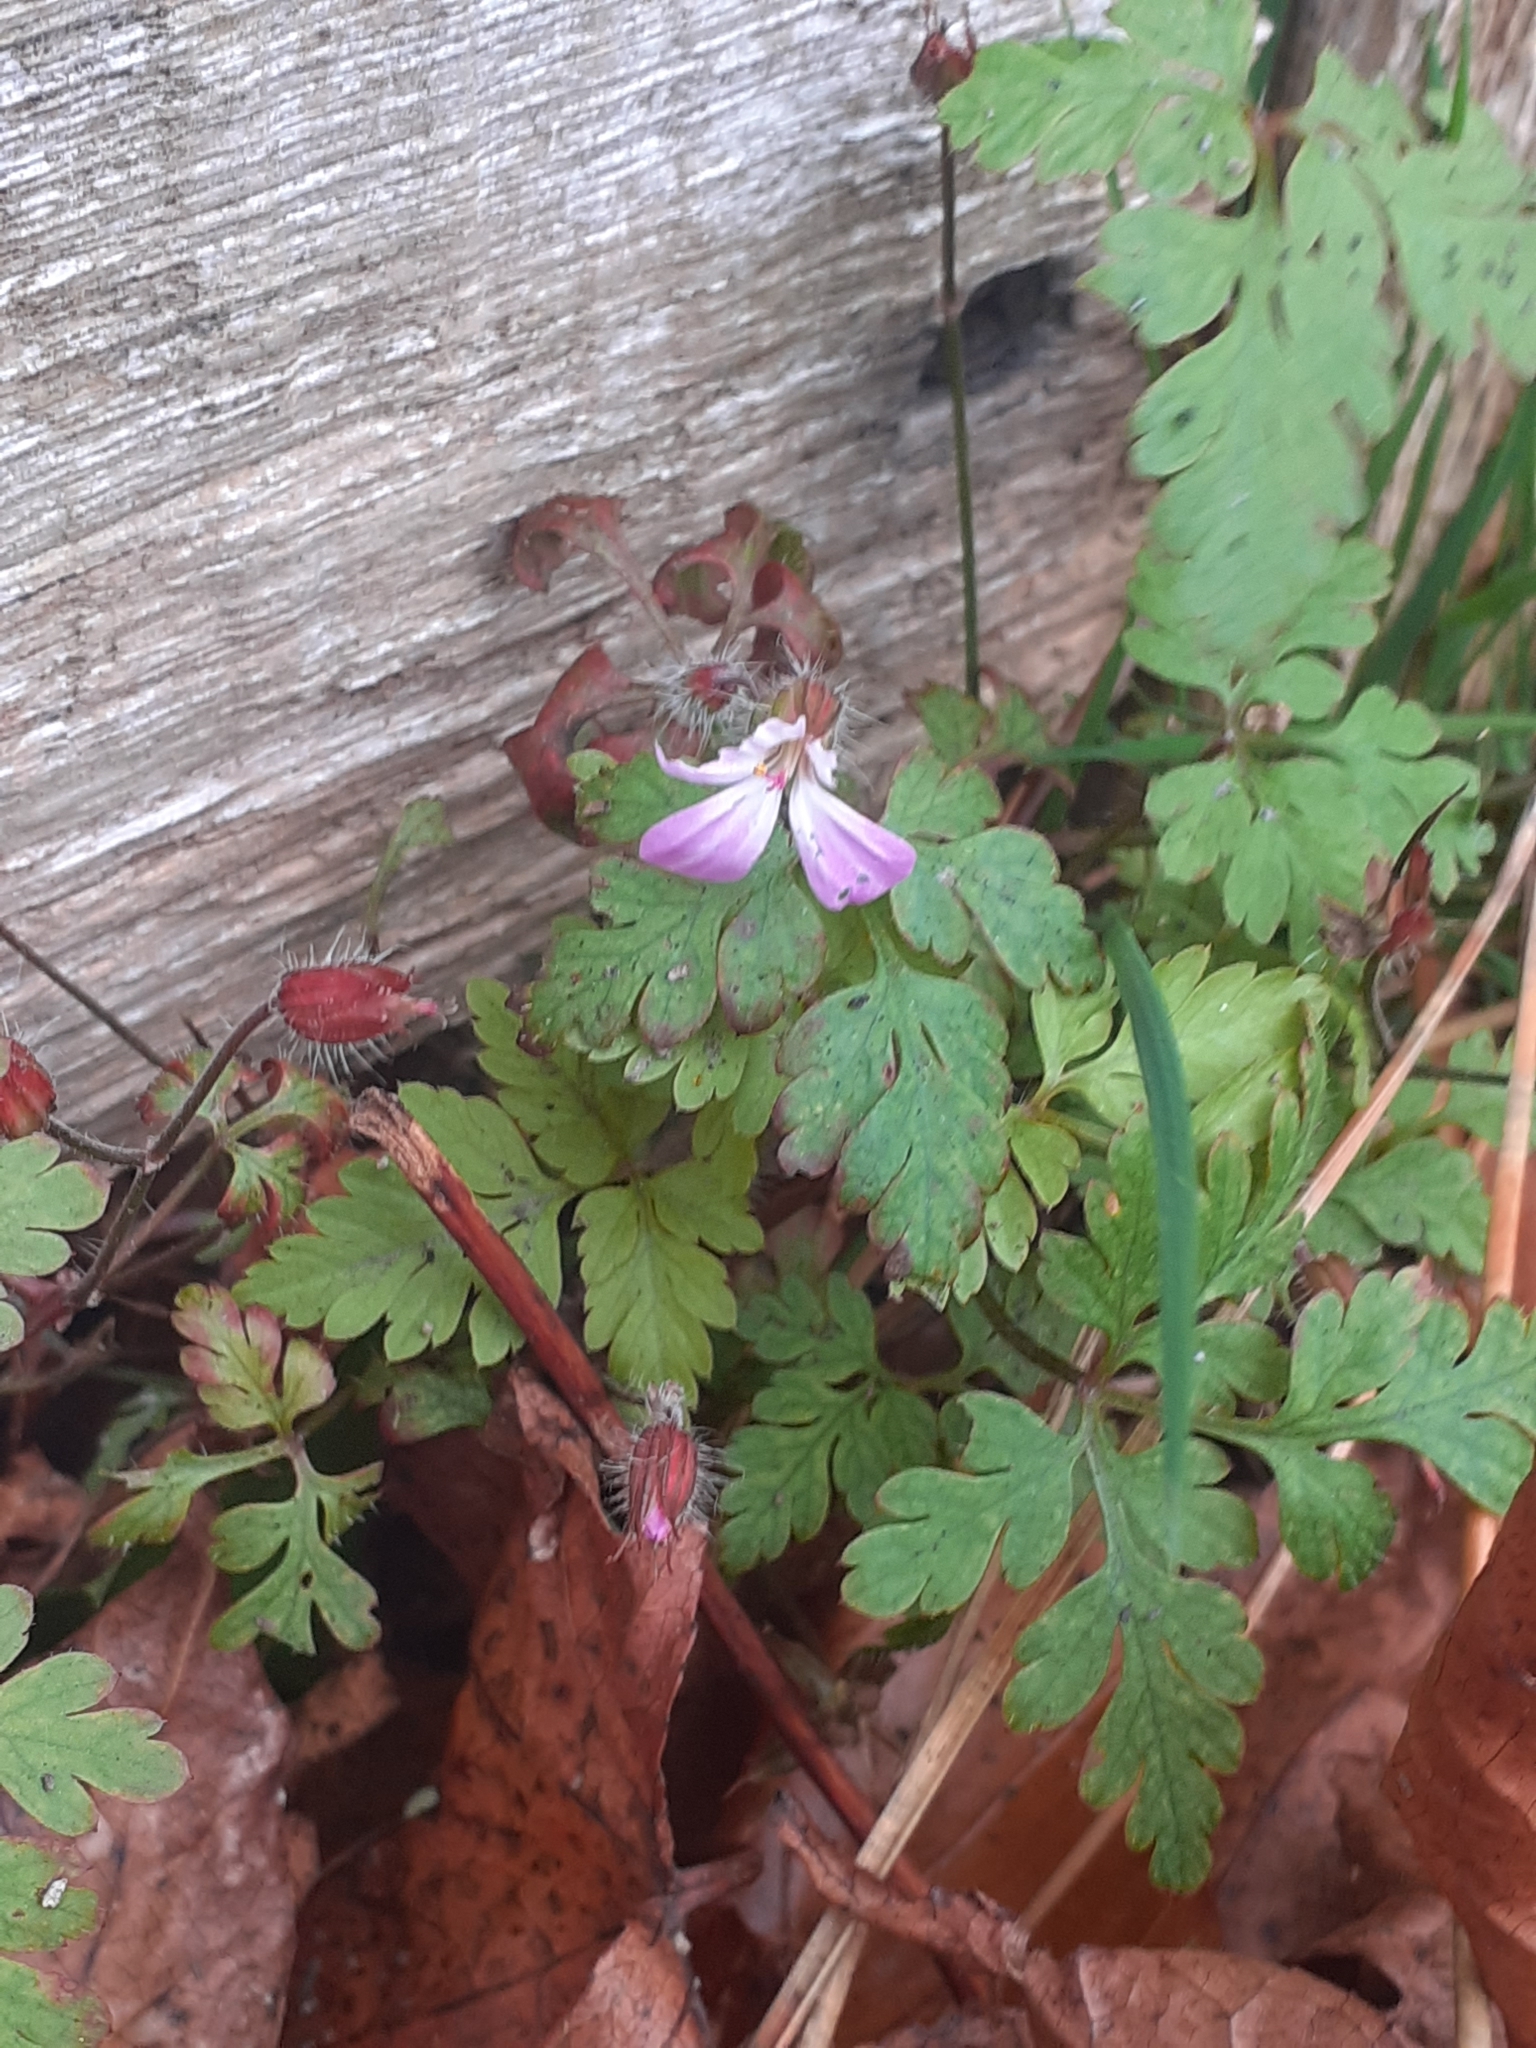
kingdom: Plantae
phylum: Tracheophyta
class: Magnoliopsida
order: Geraniales
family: Geraniaceae
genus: Geranium
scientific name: Geranium robertianum
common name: Herb-robert
